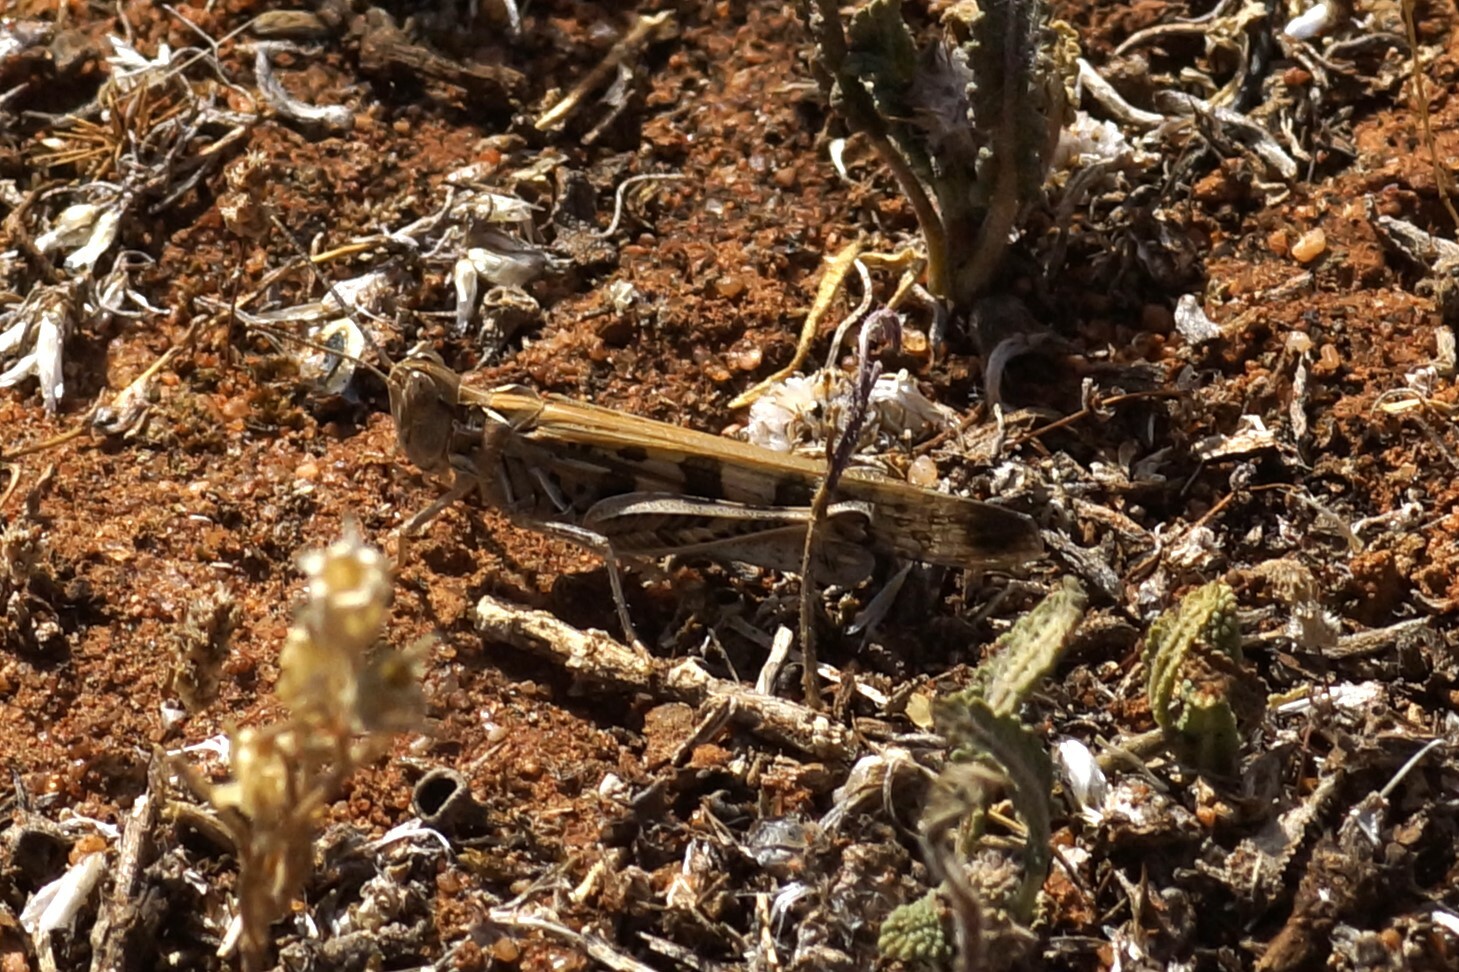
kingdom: Animalia
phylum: Arthropoda
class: Insecta
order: Orthoptera
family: Acrididae
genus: Chortoicetes
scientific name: Chortoicetes terminifera
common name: Australian plague locust
